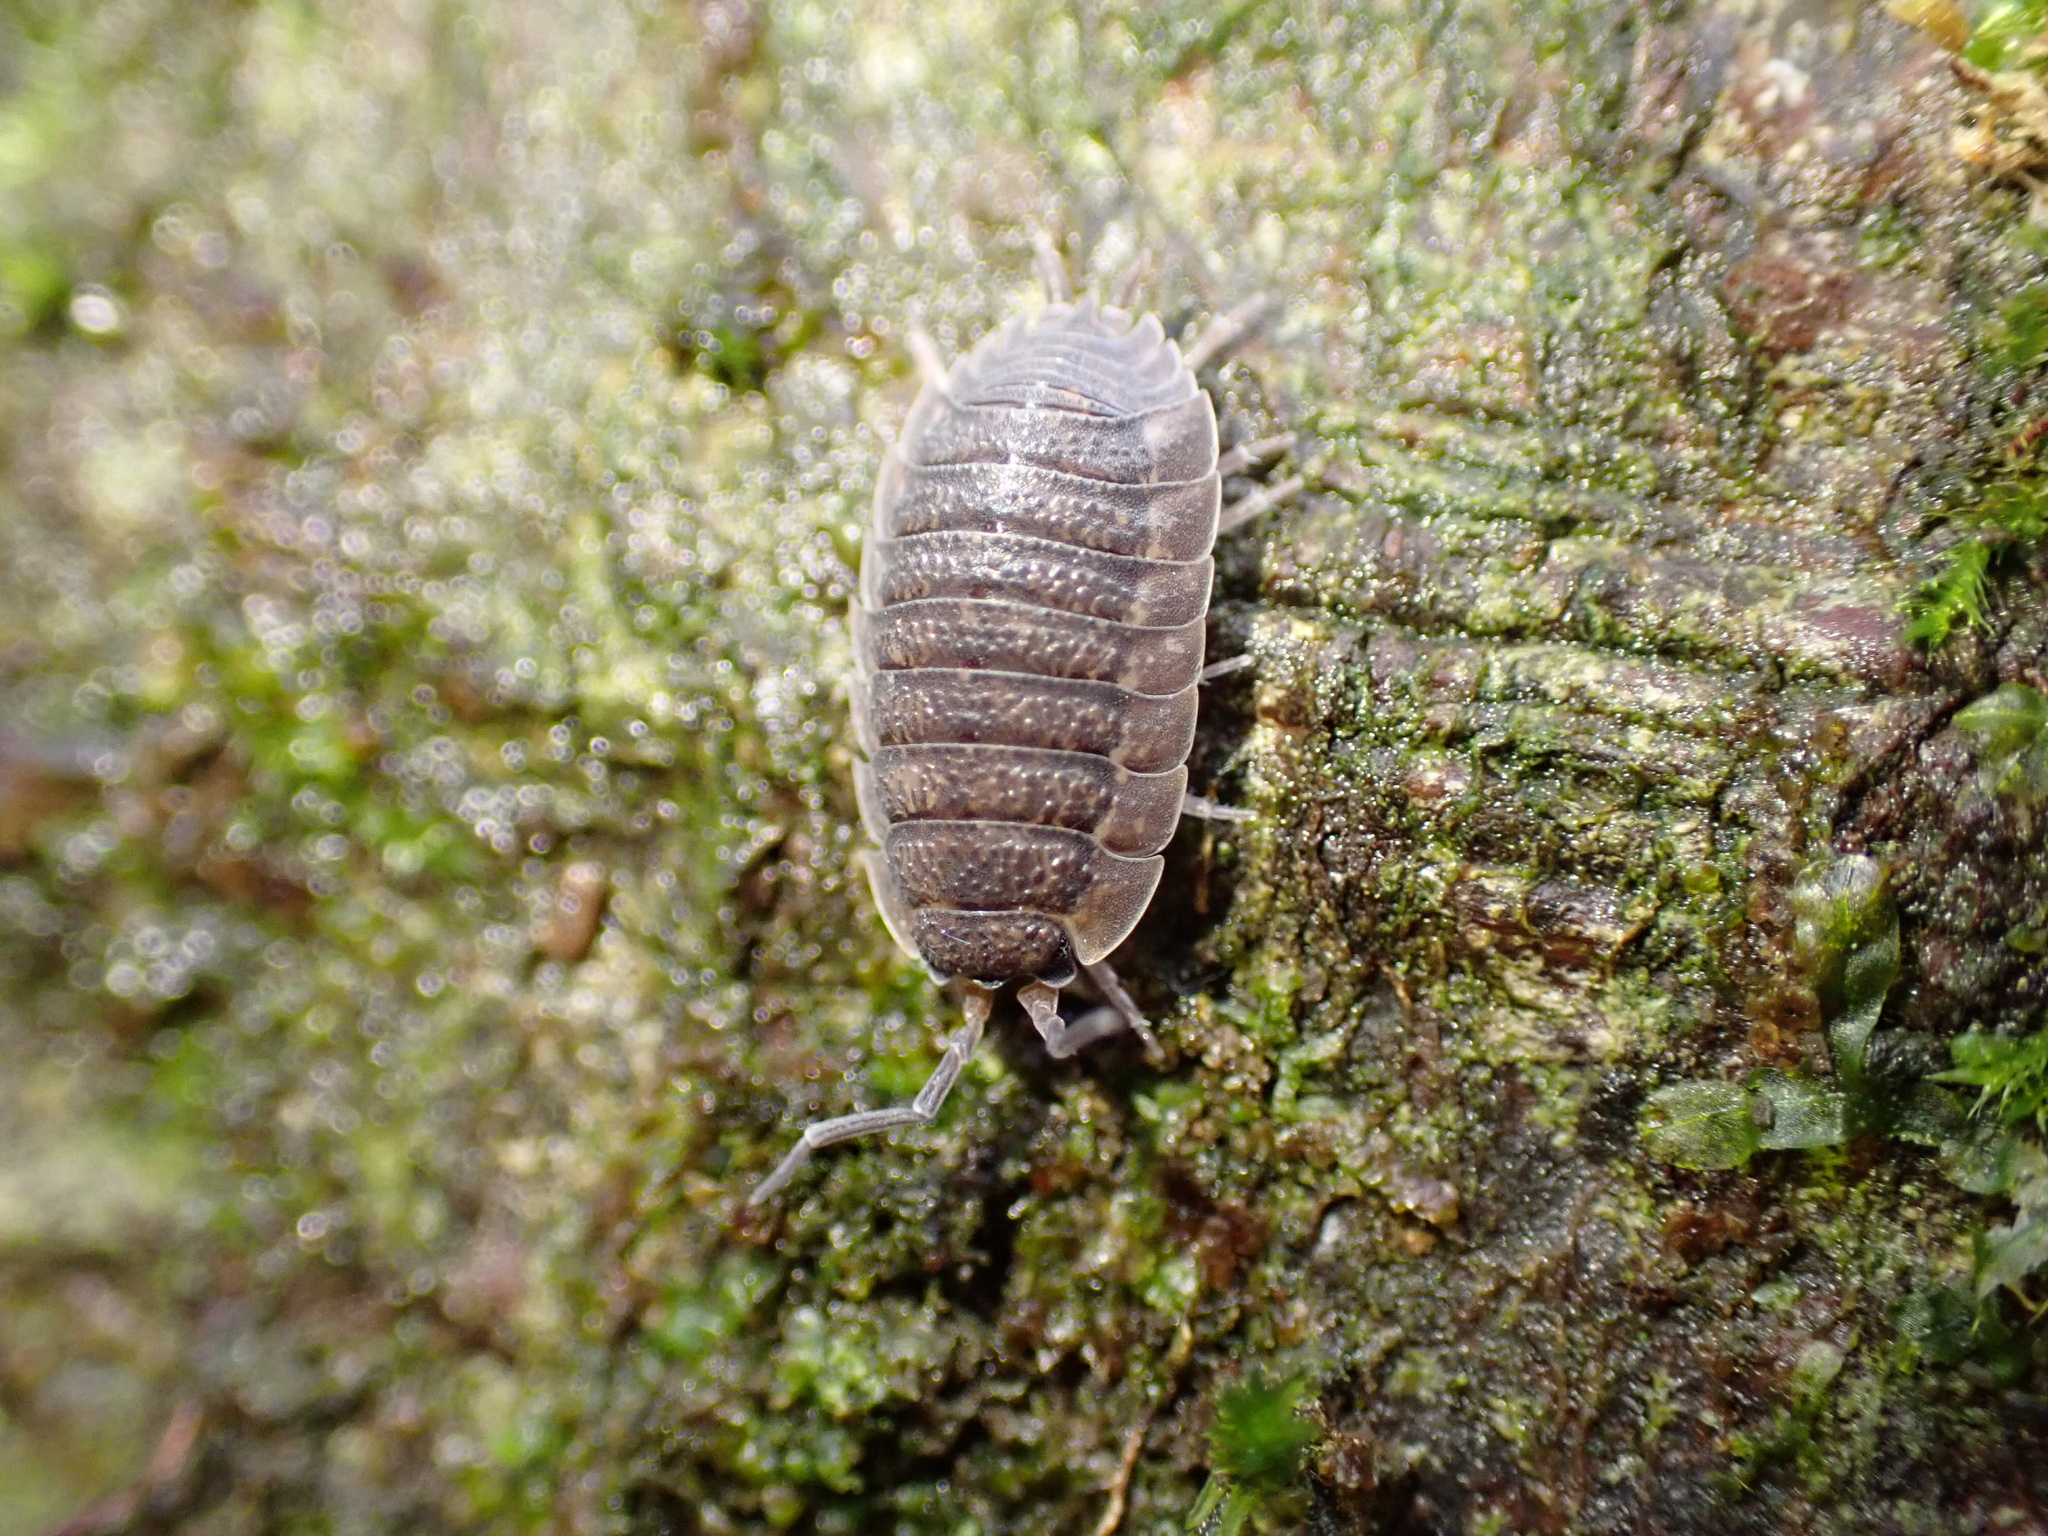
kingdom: Animalia
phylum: Arthropoda
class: Malacostraca
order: Isopoda
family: Porcellionidae
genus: Porcellio
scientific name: Porcellio scaber
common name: Common rough woodlouse
